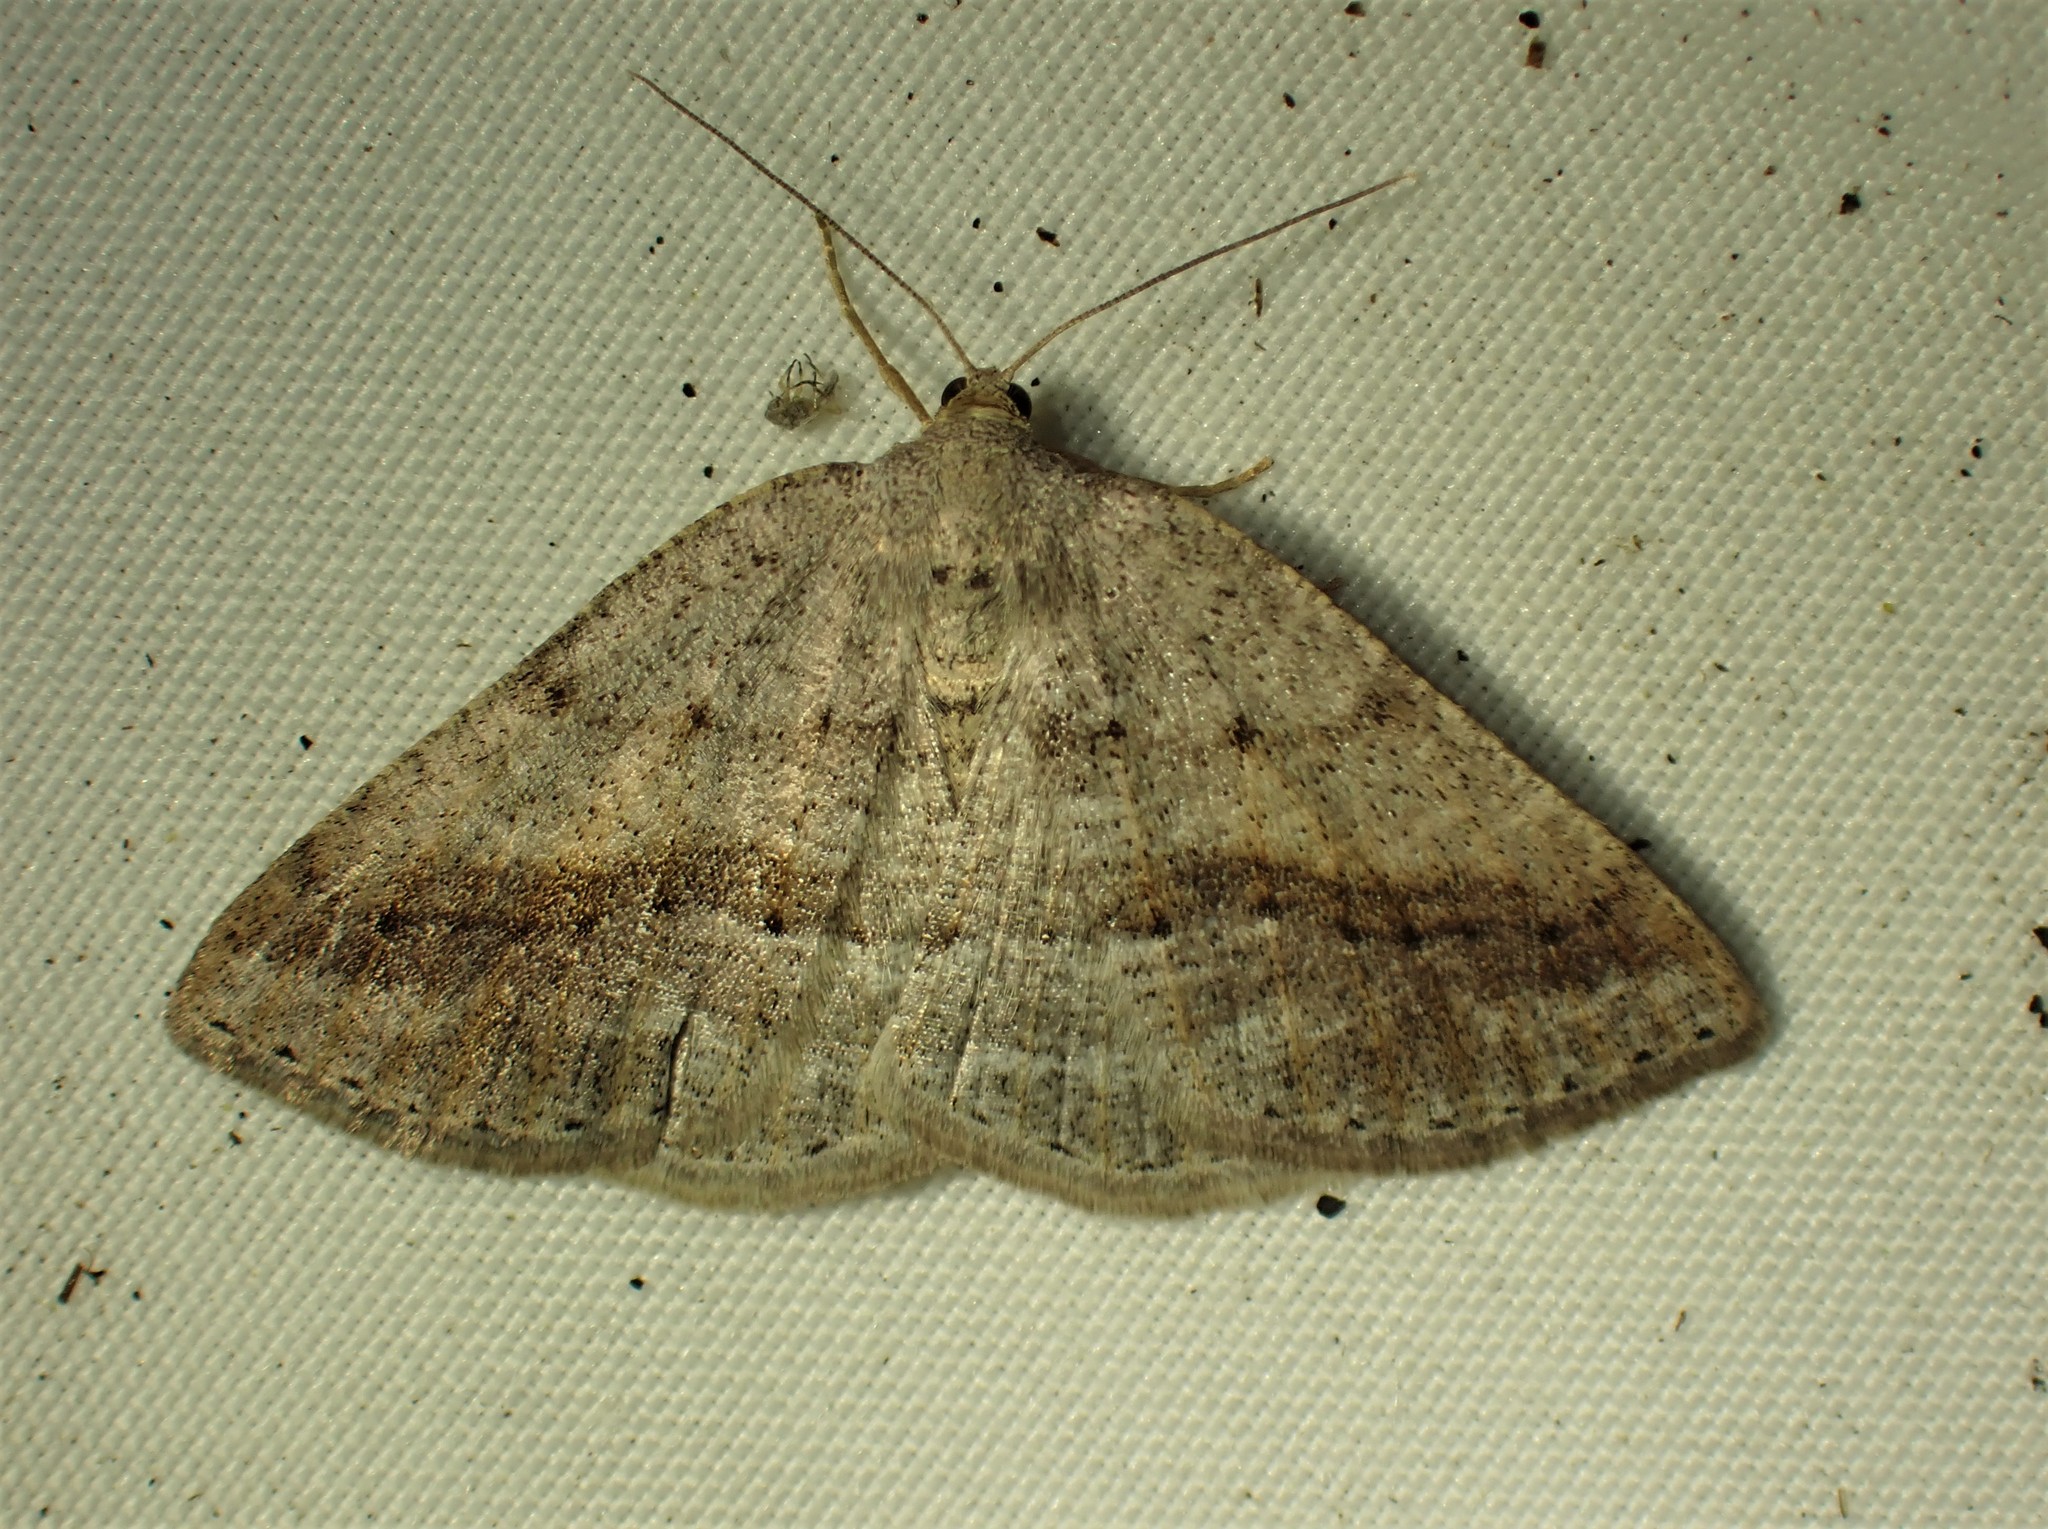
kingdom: Animalia
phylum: Arthropoda
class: Insecta
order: Lepidoptera
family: Geometridae
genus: Tacparia
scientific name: Tacparia detersata
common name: Pale alder moth
